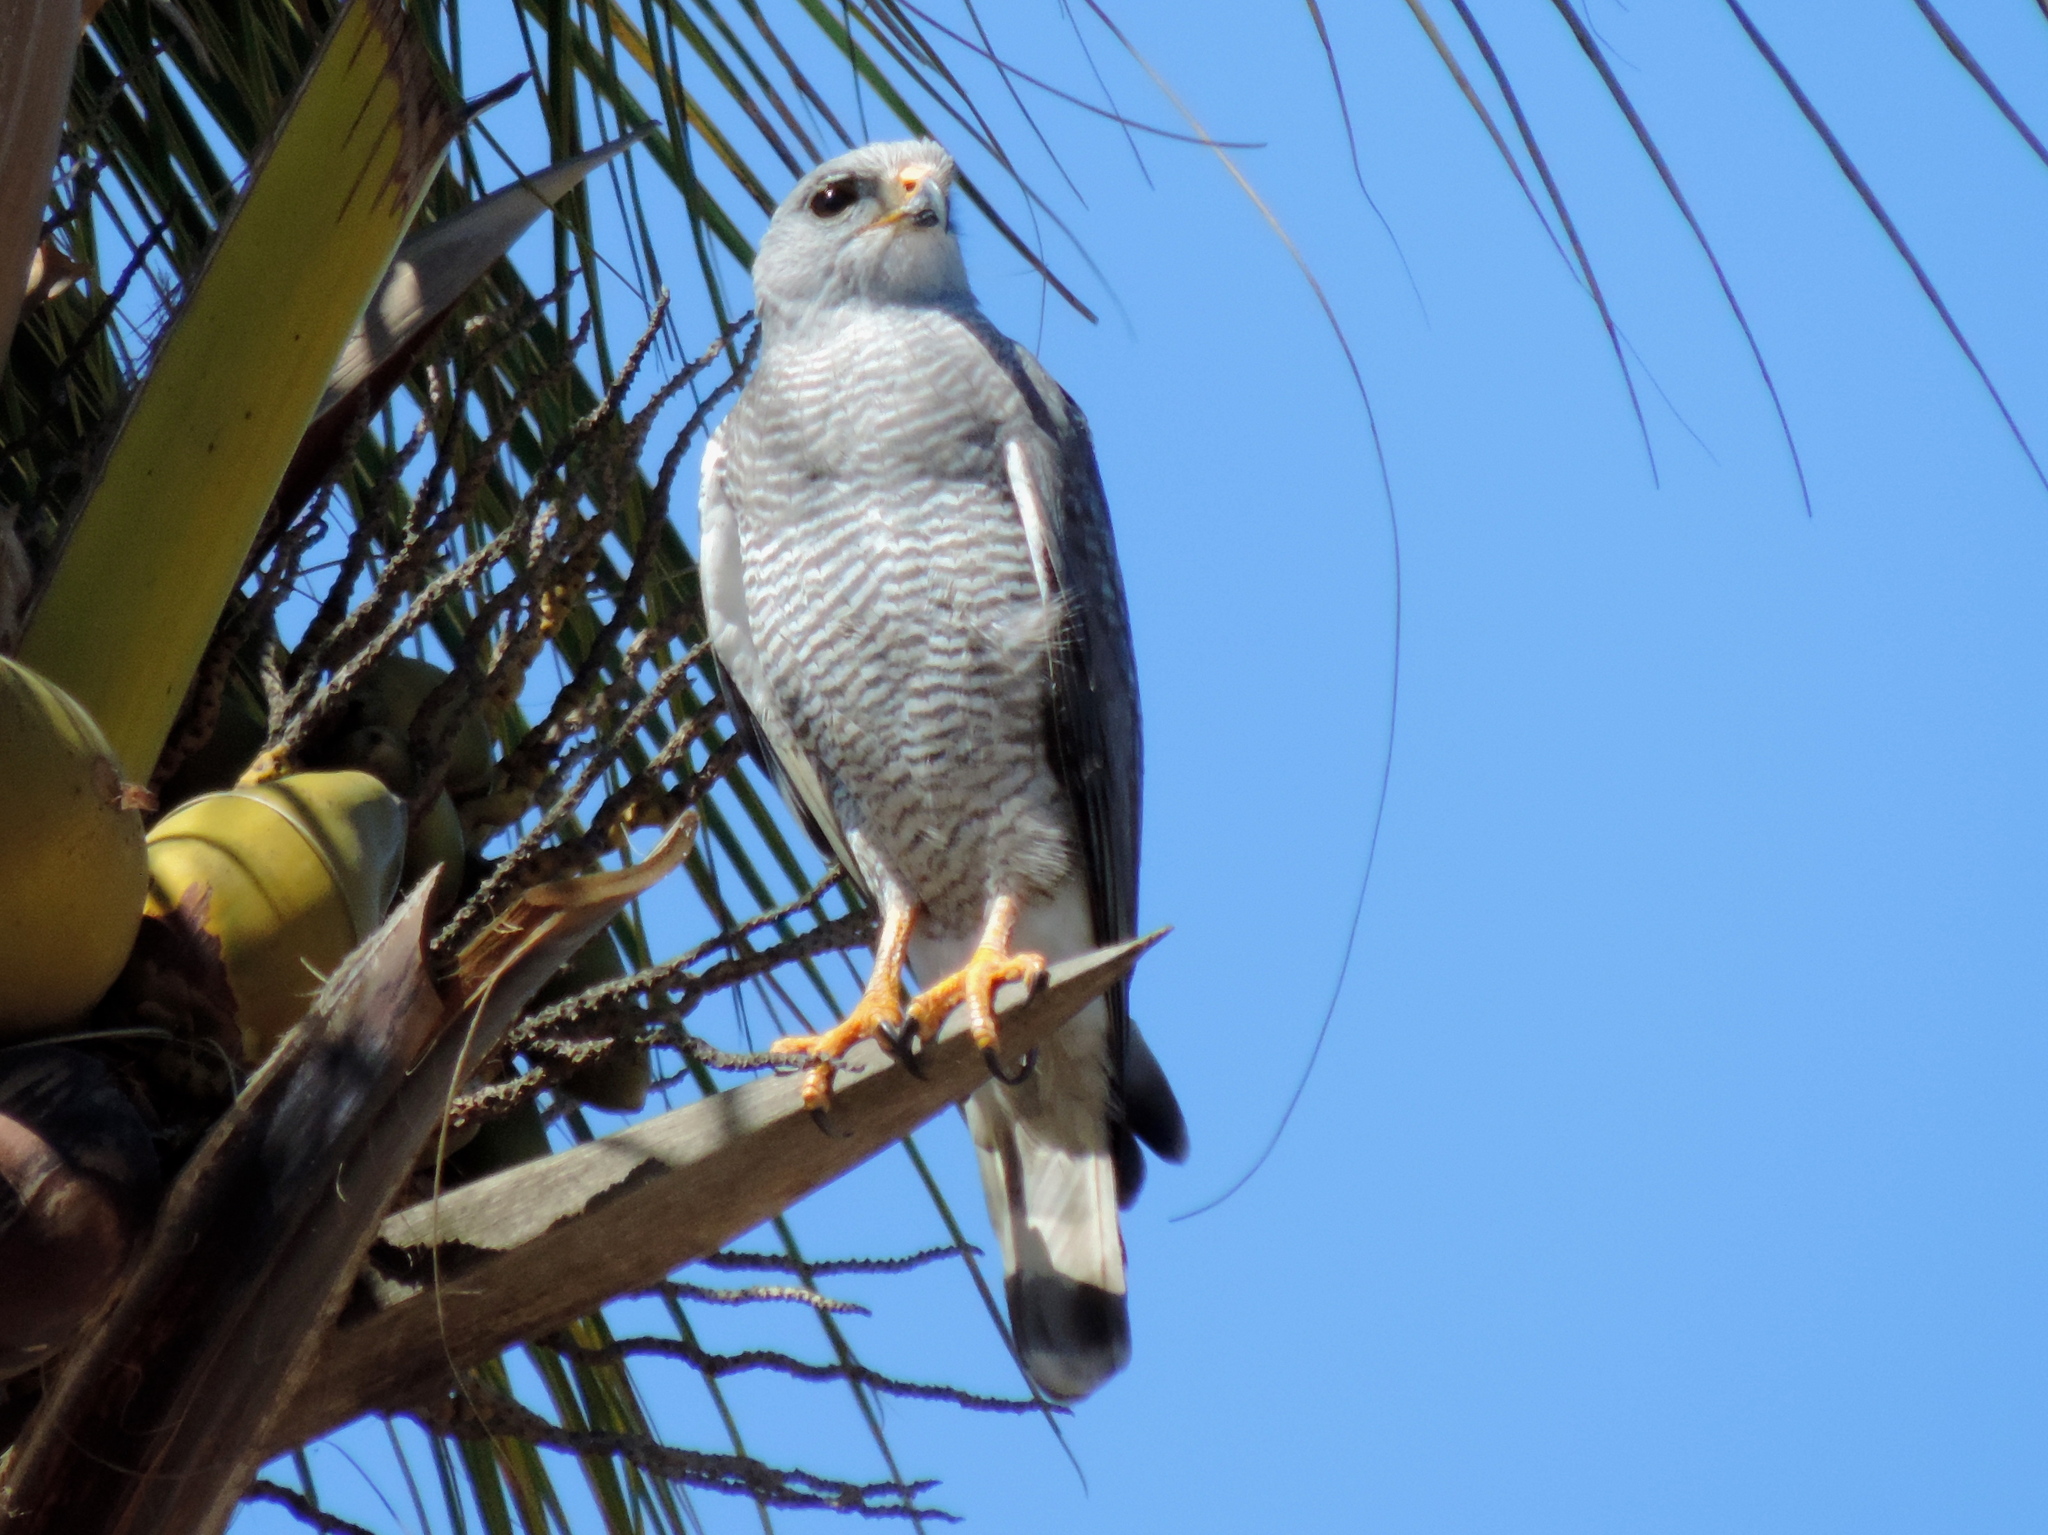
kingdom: Animalia
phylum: Chordata
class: Aves
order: Accipitriformes
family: Accipitridae
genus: Buteo
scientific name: Buteo nitidus
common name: Grey-lined hawk
